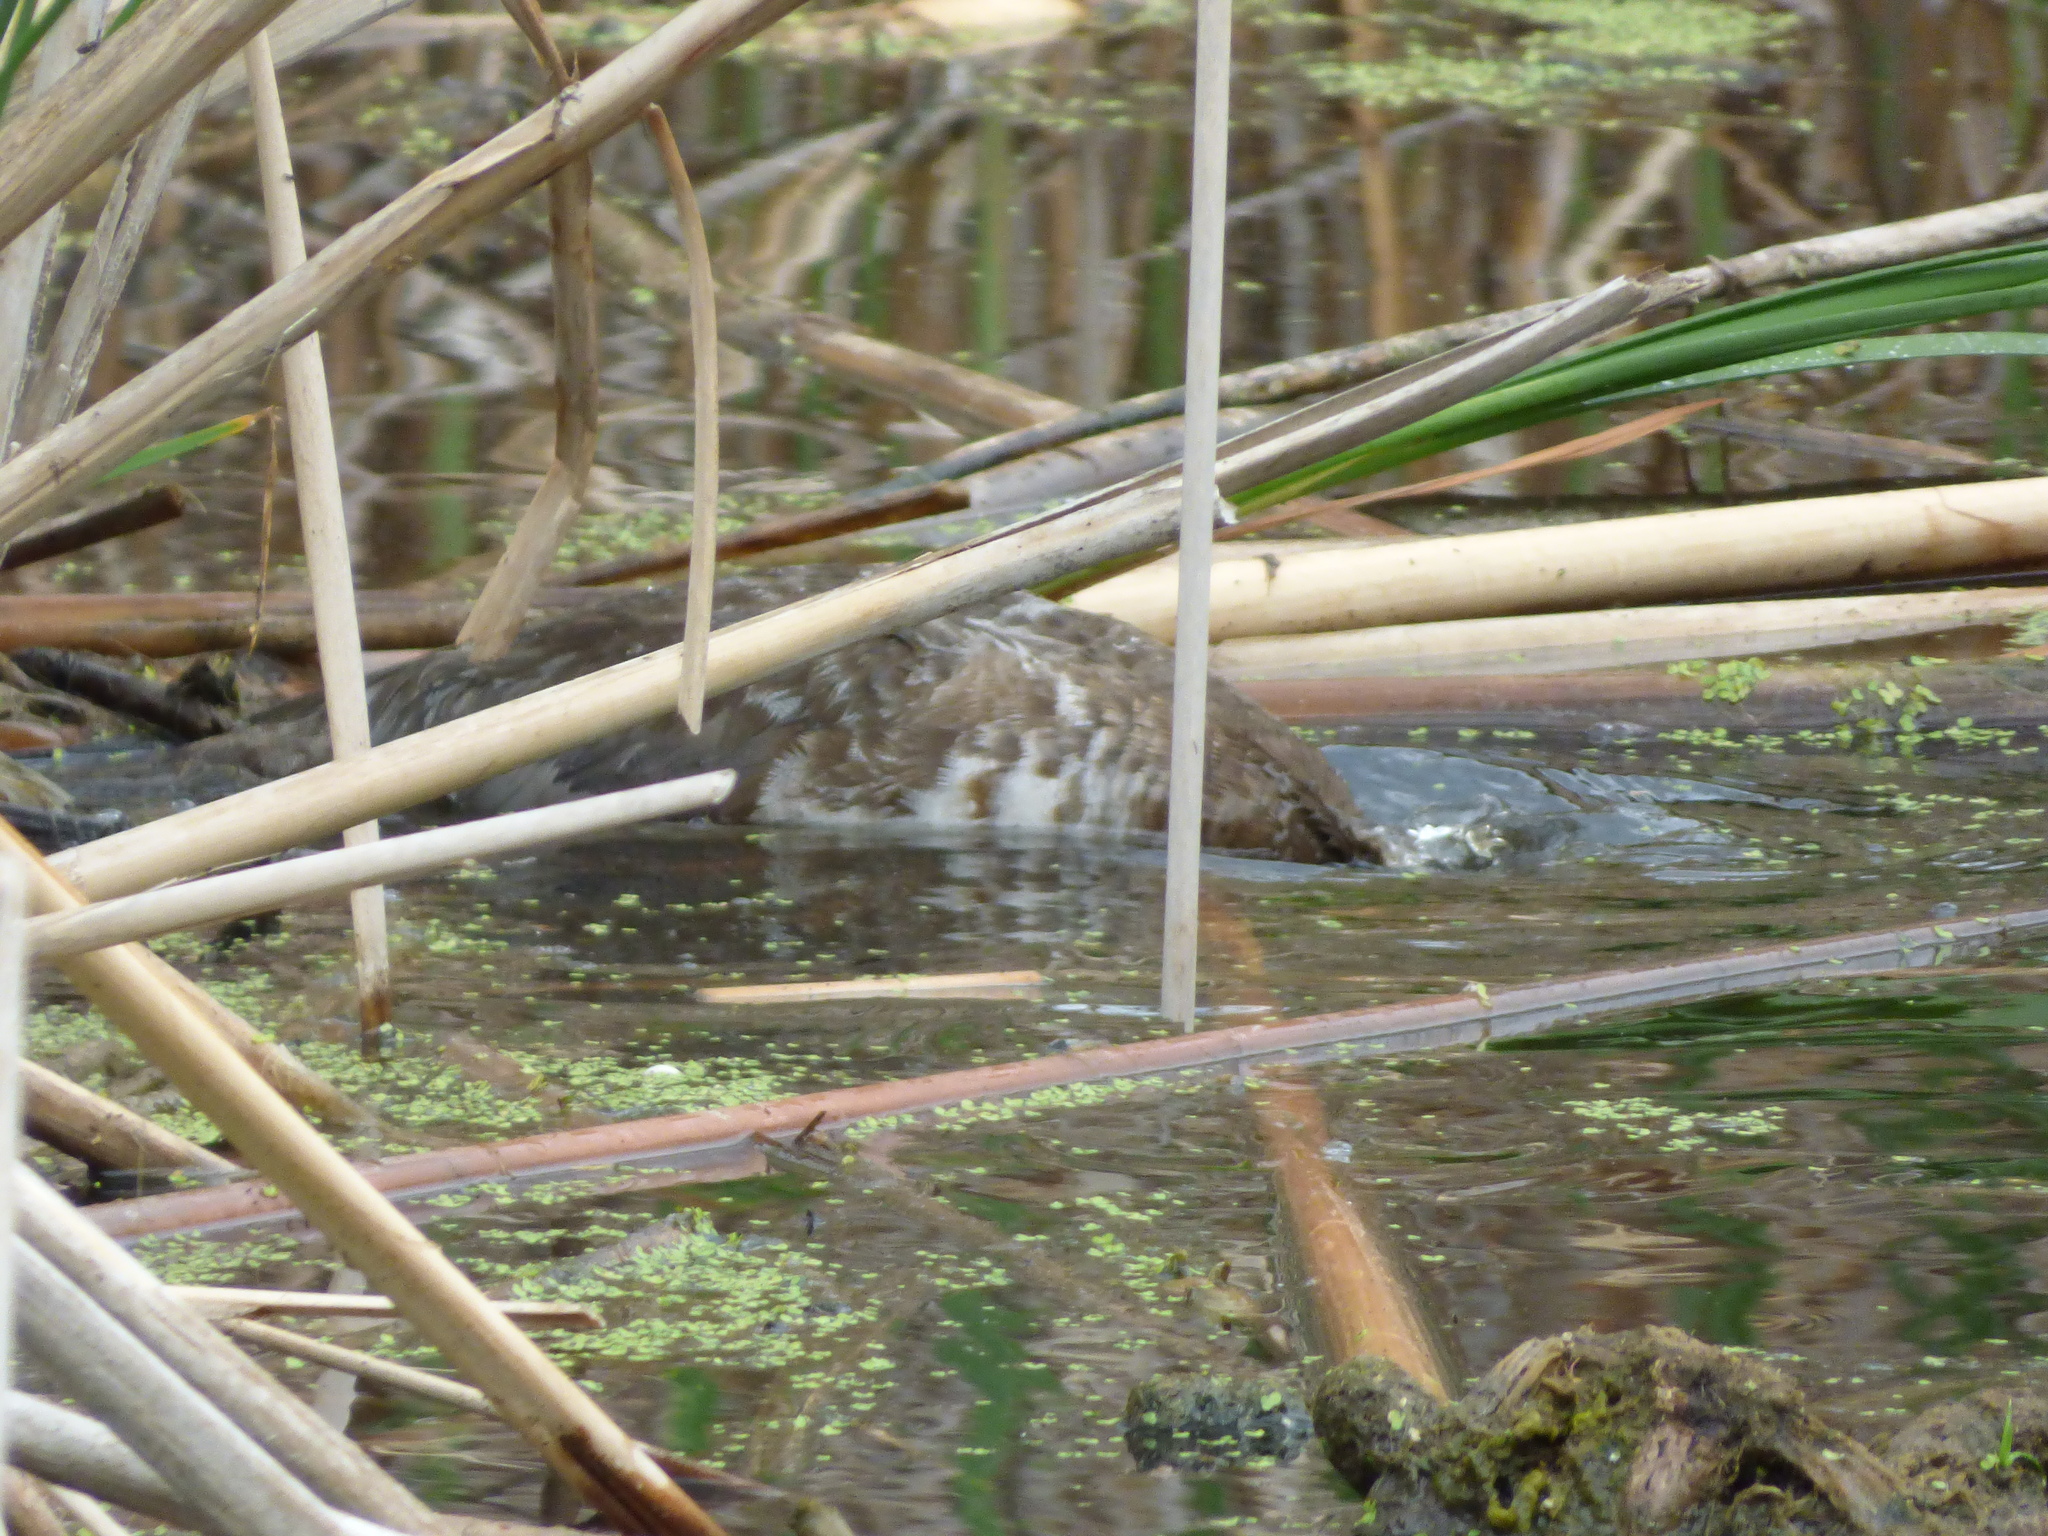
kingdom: Animalia
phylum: Chordata
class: Aves
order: Anseriformes
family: Anatidae
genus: Aythya
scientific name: Aythya valisineria
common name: Canvasback
